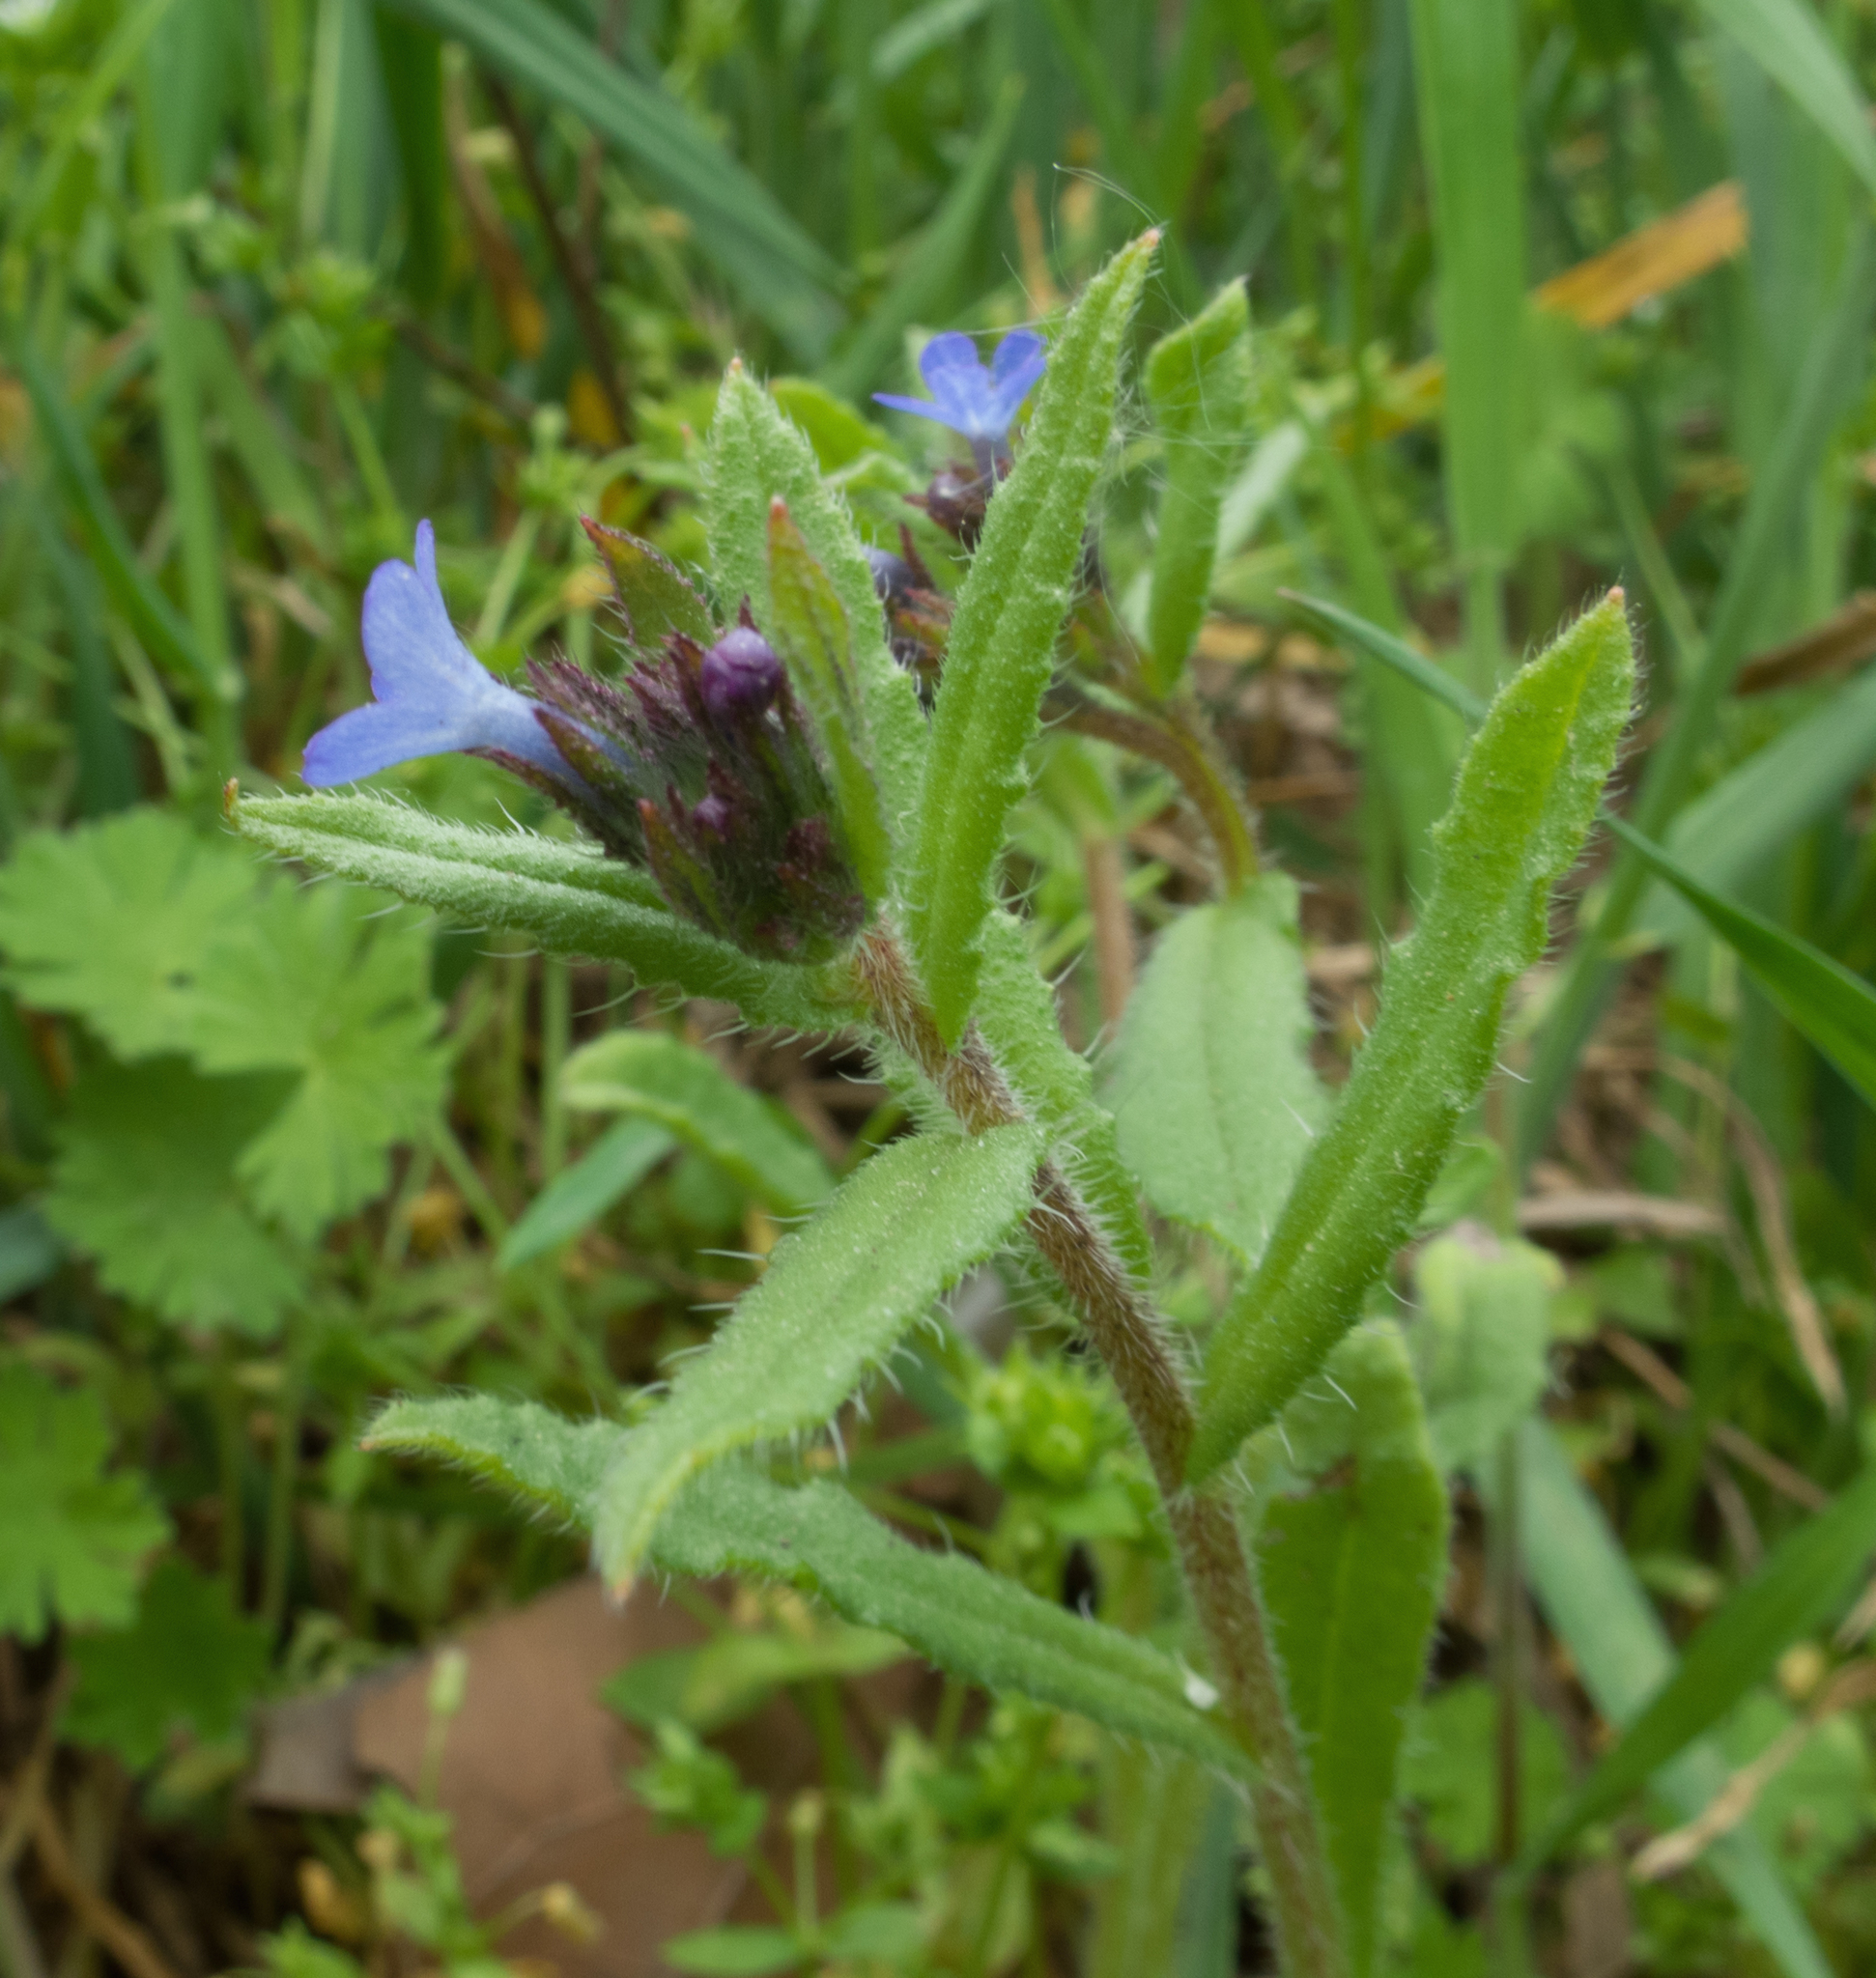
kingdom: Plantae
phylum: Tracheophyta
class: Magnoliopsida
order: Boraginales
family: Boraginaceae
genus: Lycopsis
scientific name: Lycopsis arvensis
